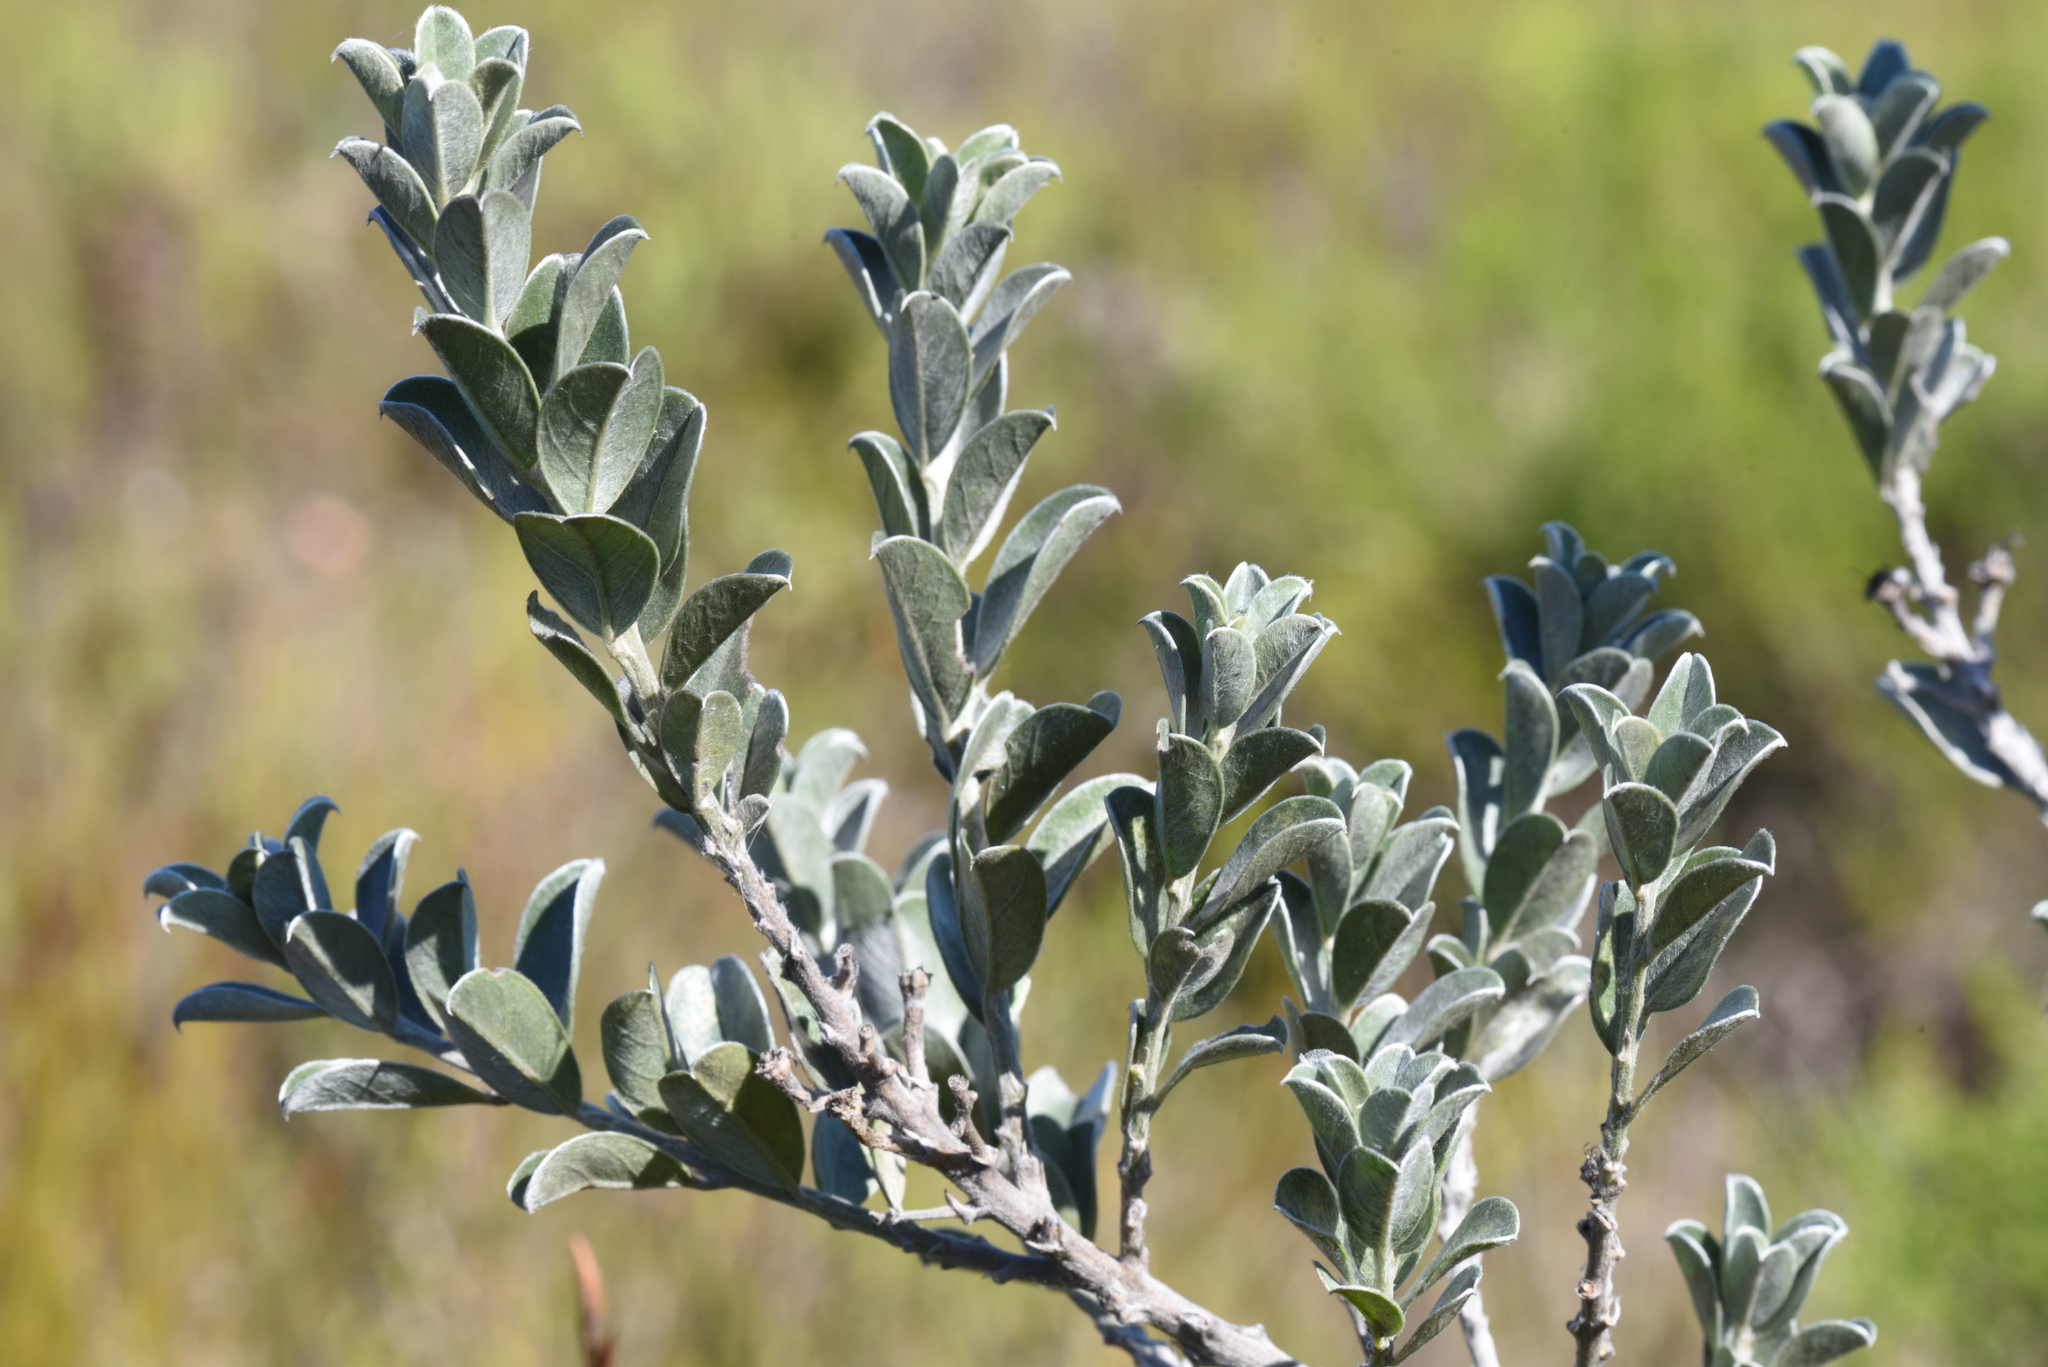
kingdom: Plantae
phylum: Tracheophyta
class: Magnoliopsida
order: Fabales
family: Fabaceae
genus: Podalyria
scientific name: Podalyria myrtillifolia
